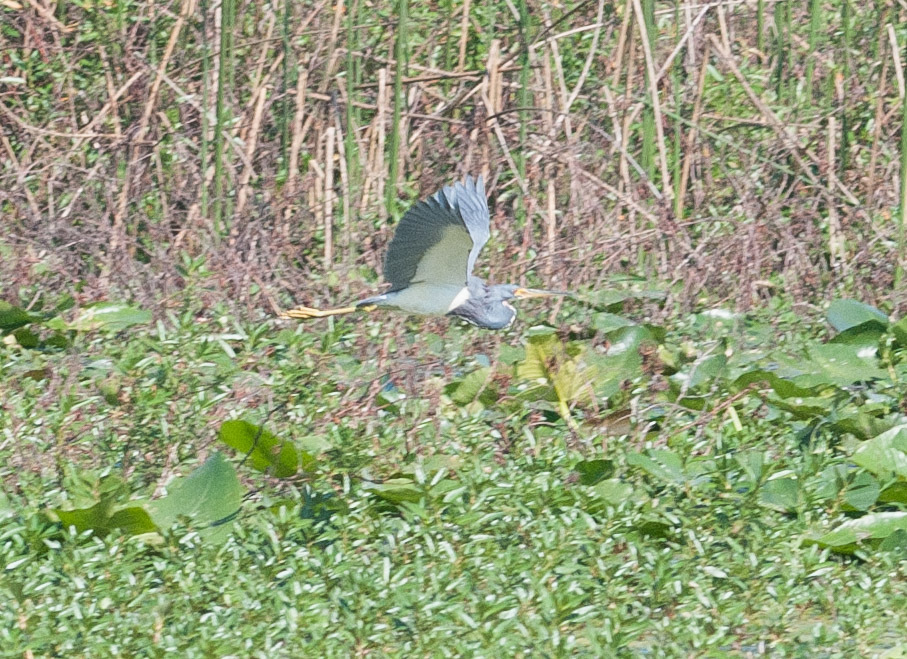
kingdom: Animalia
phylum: Chordata
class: Aves
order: Pelecaniformes
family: Ardeidae
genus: Egretta
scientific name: Egretta tricolor
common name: Tricolored heron
